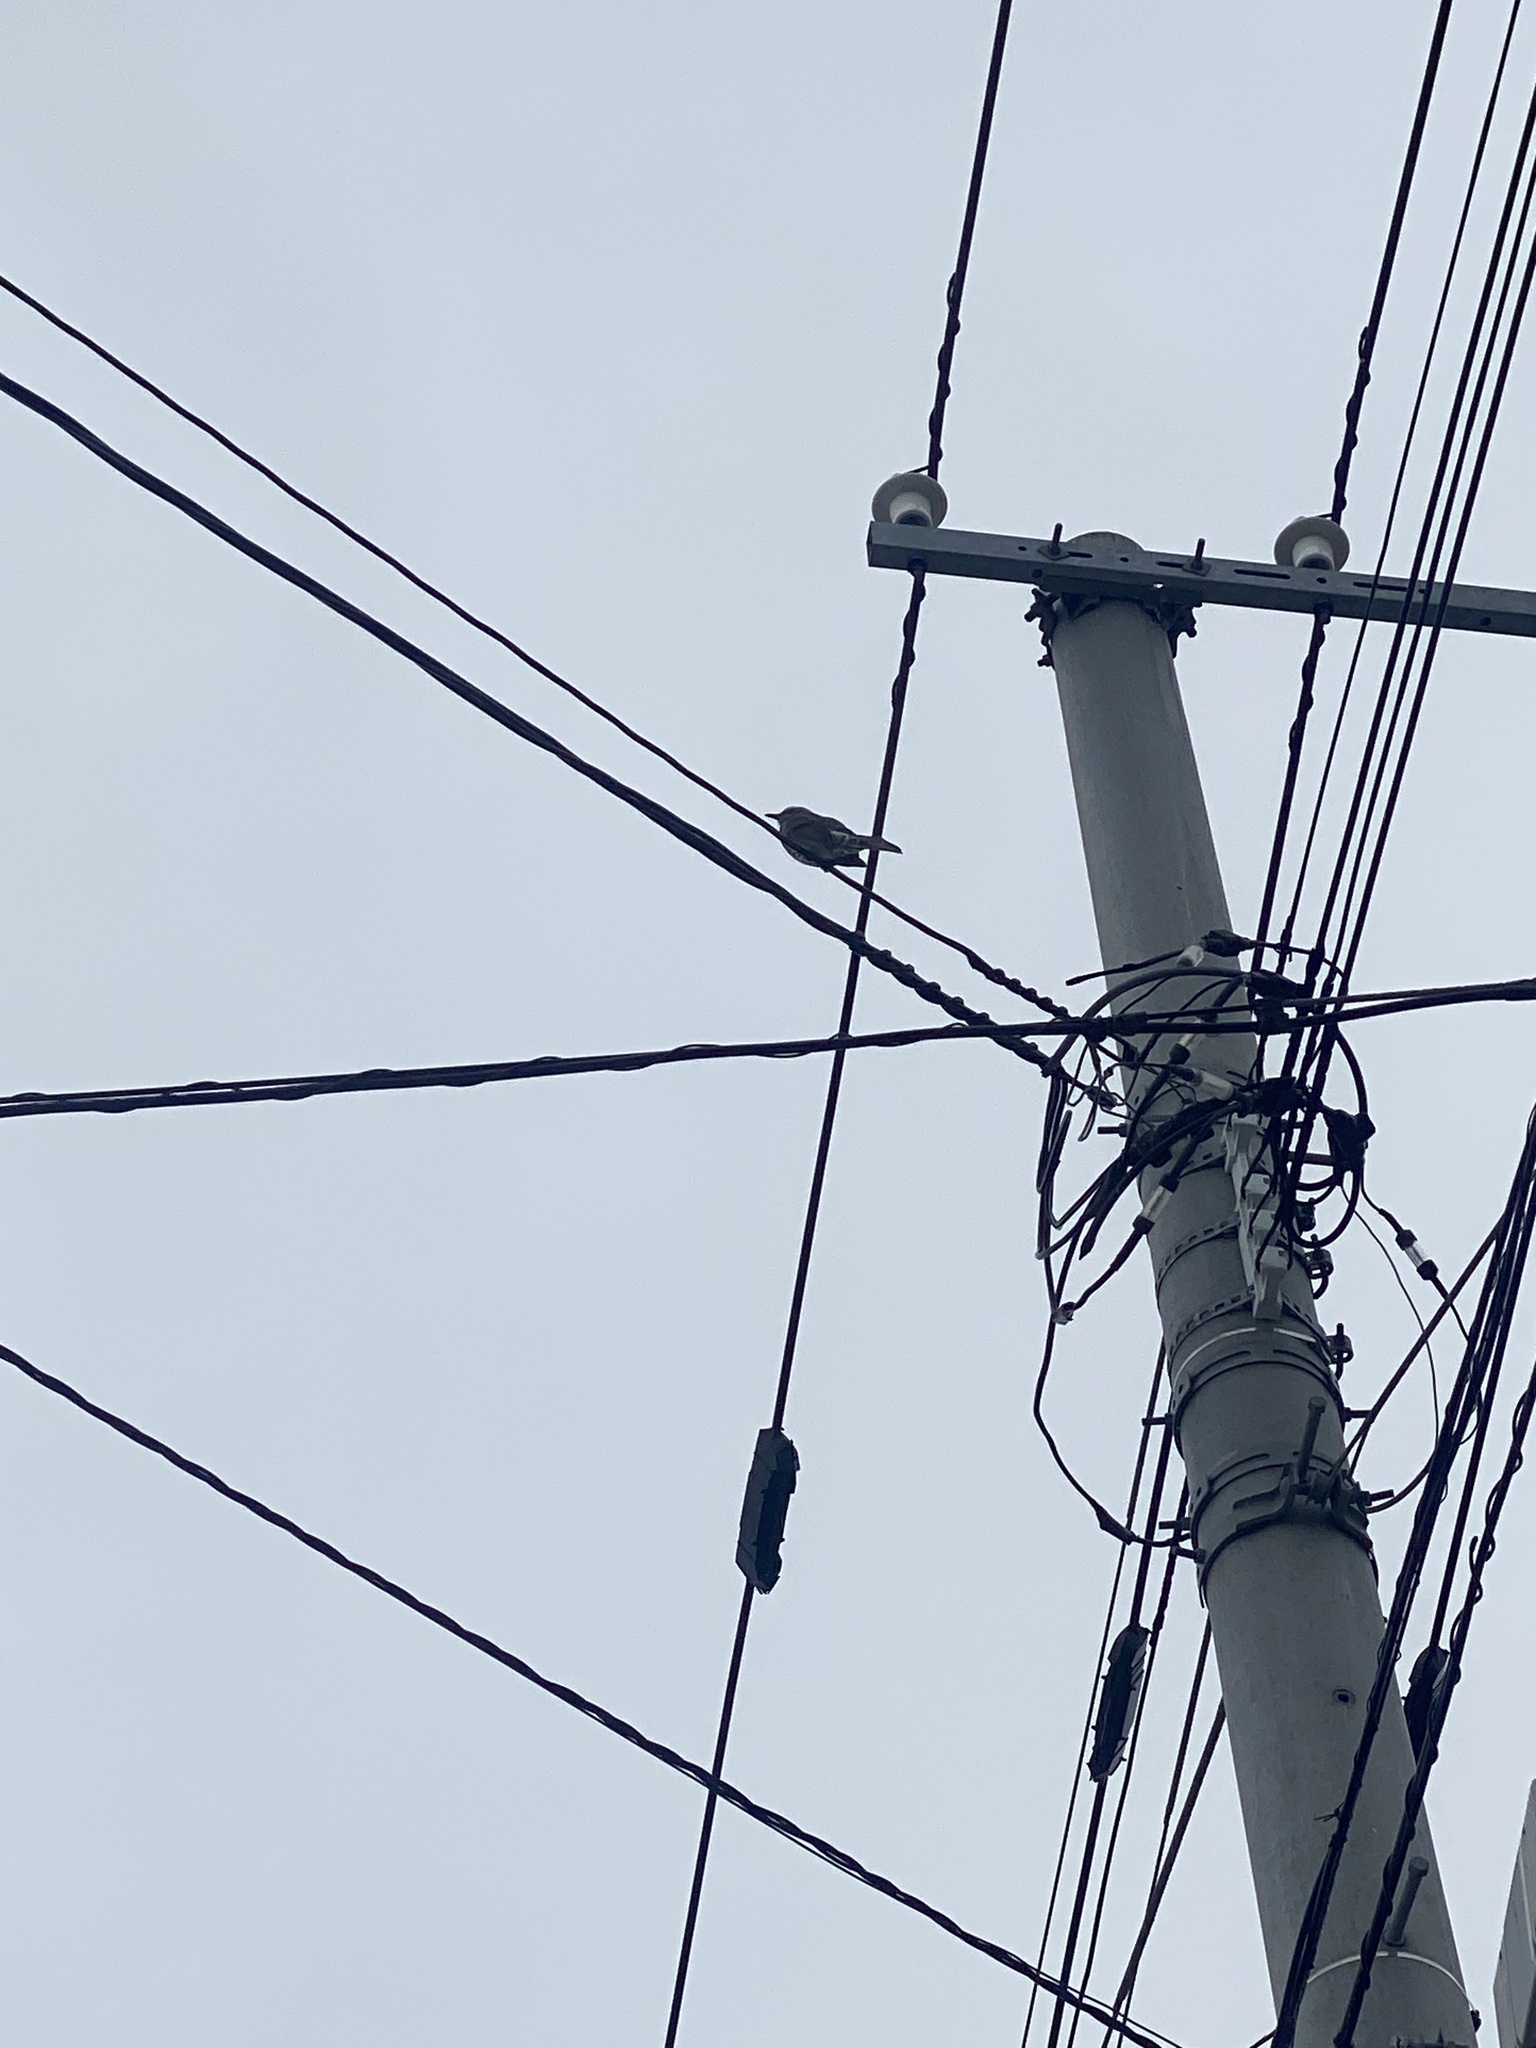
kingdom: Animalia
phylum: Chordata
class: Aves
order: Passeriformes
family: Pycnonotidae
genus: Hypsipetes
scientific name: Hypsipetes amaurotis
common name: Brown-eared bulbul
